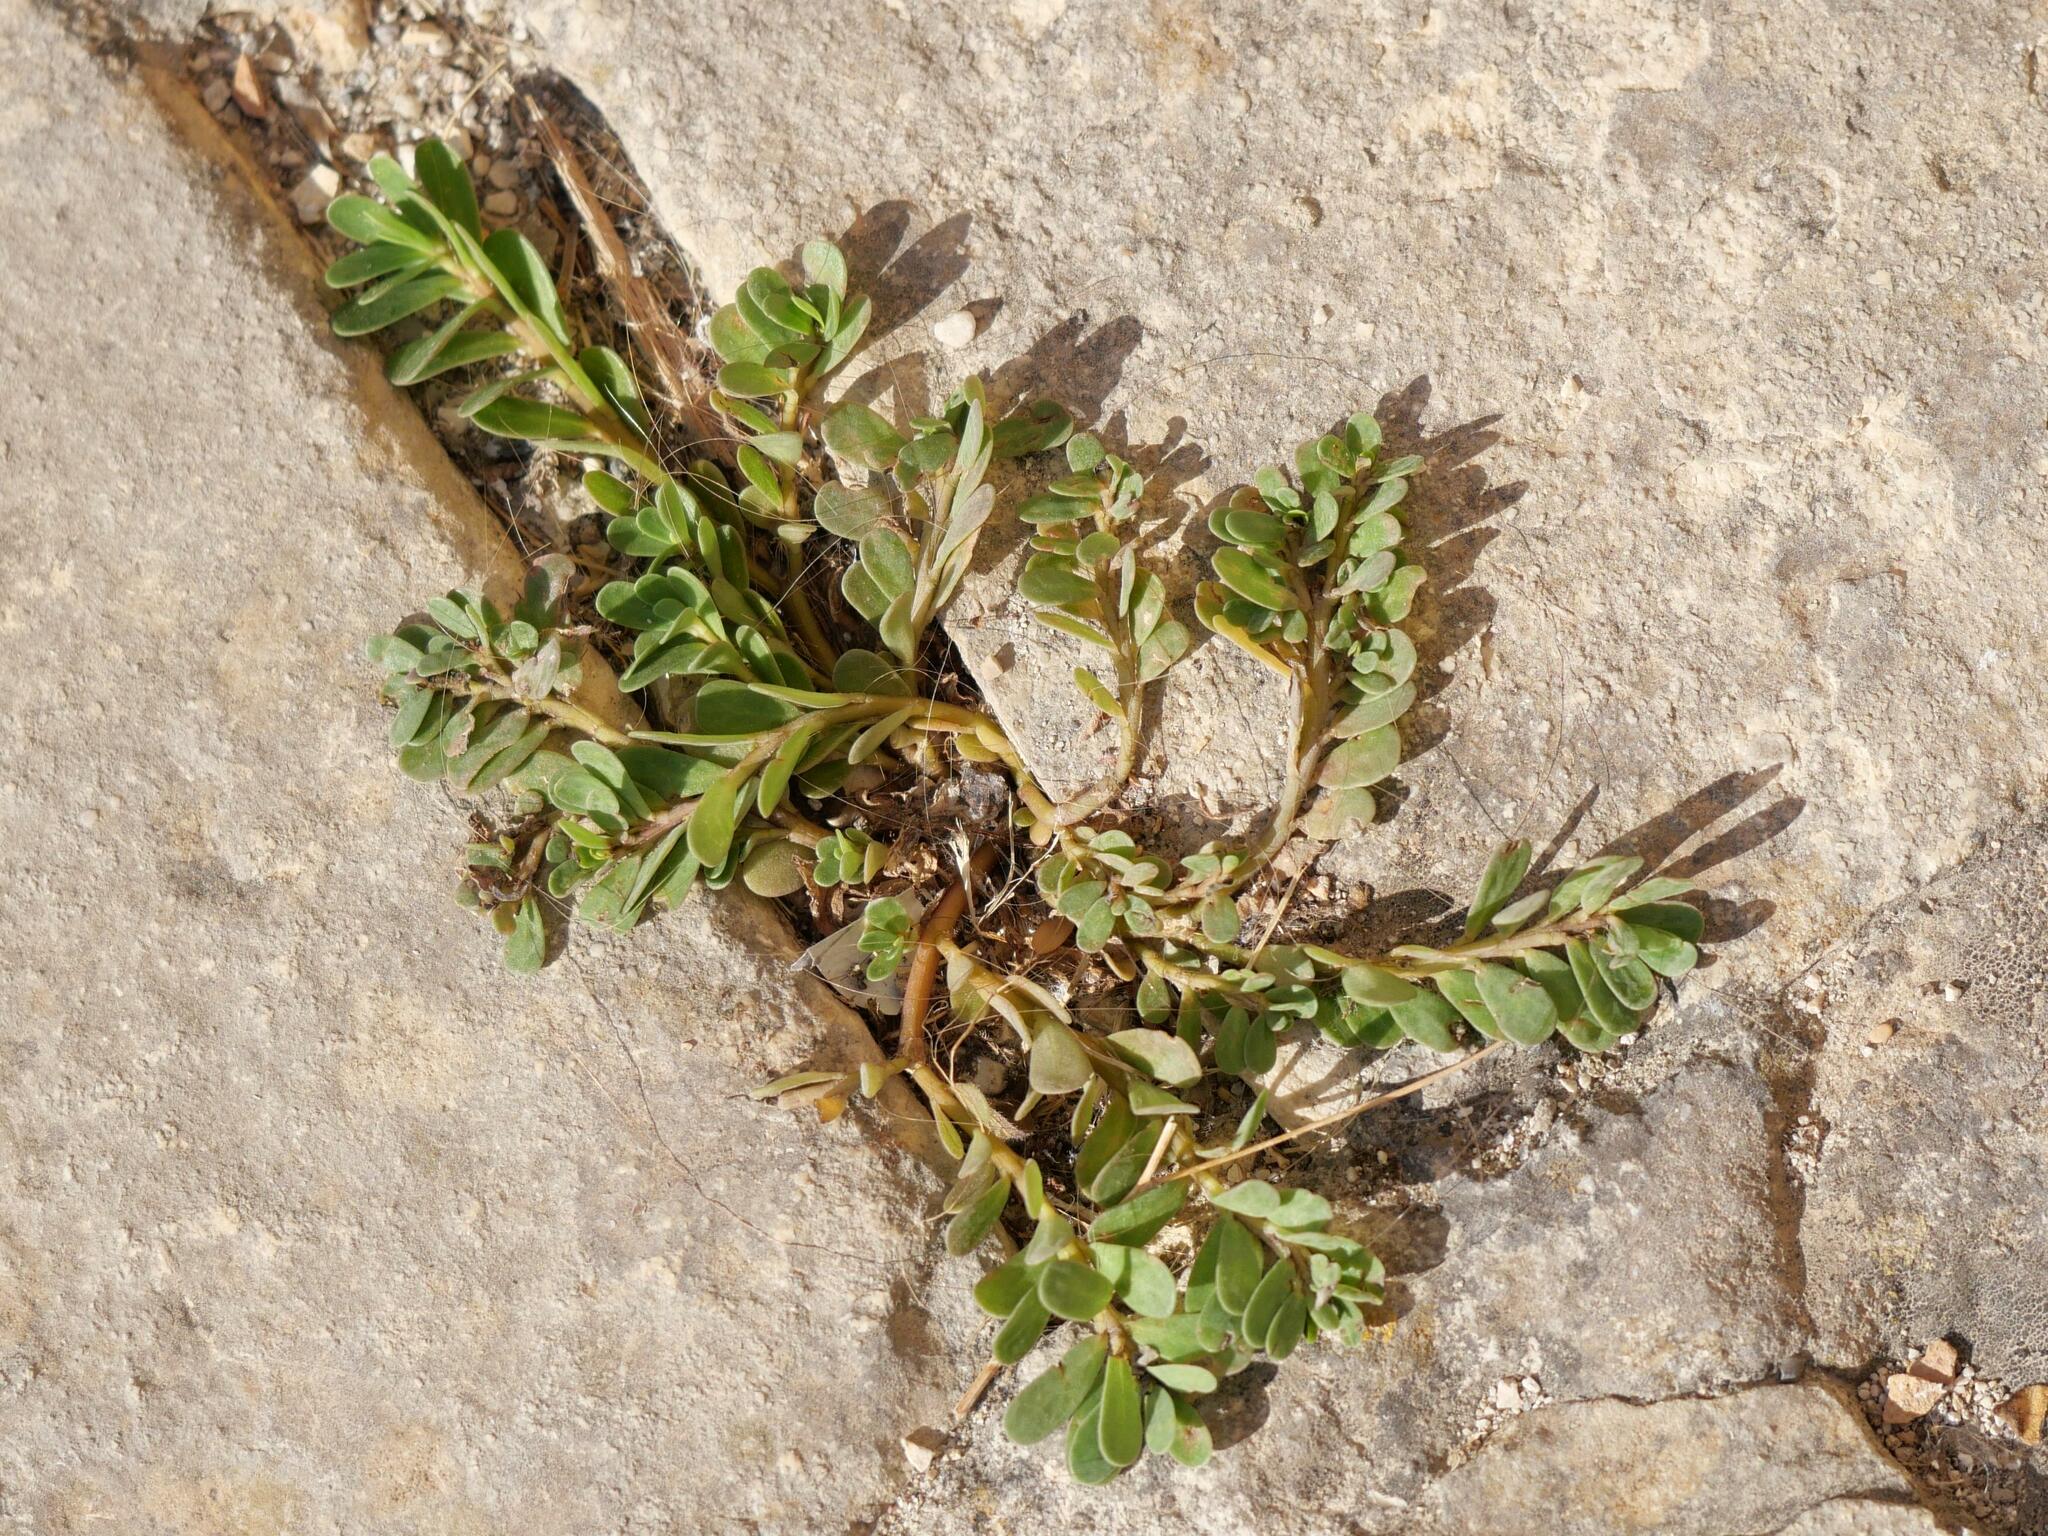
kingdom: Plantae
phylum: Tracheophyta
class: Magnoliopsida
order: Caryophyllales
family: Portulacaceae
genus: Portulaca
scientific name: Portulaca oleracea
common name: Common purslane
